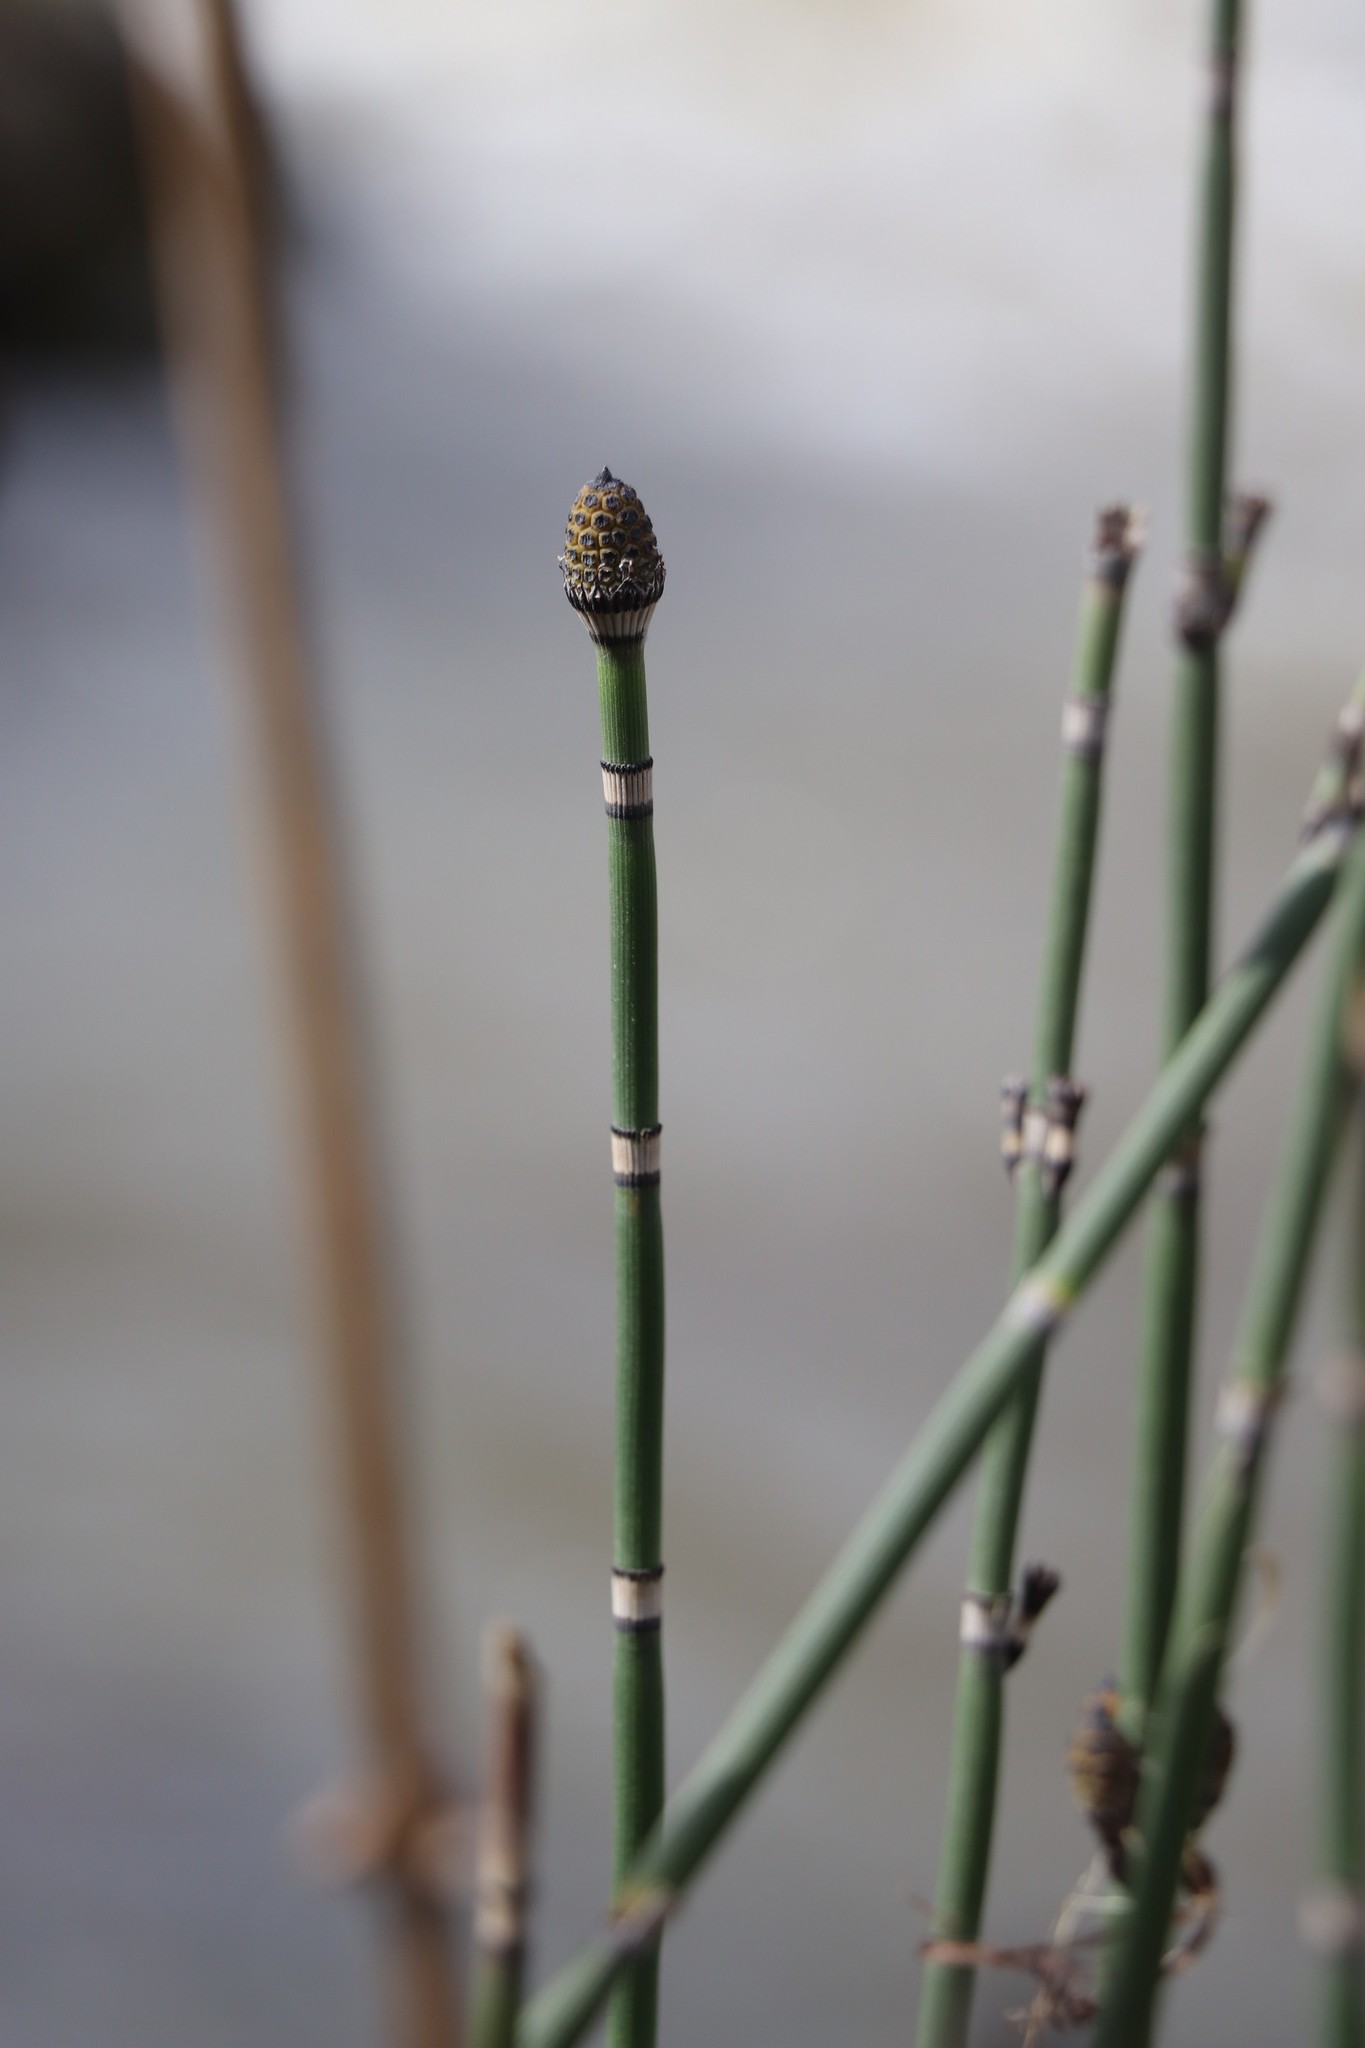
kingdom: Plantae
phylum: Tracheophyta
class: Polypodiopsida
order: Equisetales
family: Equisetaceae
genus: Equisetum
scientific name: Equisetum hyemale
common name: Rough horsetail
